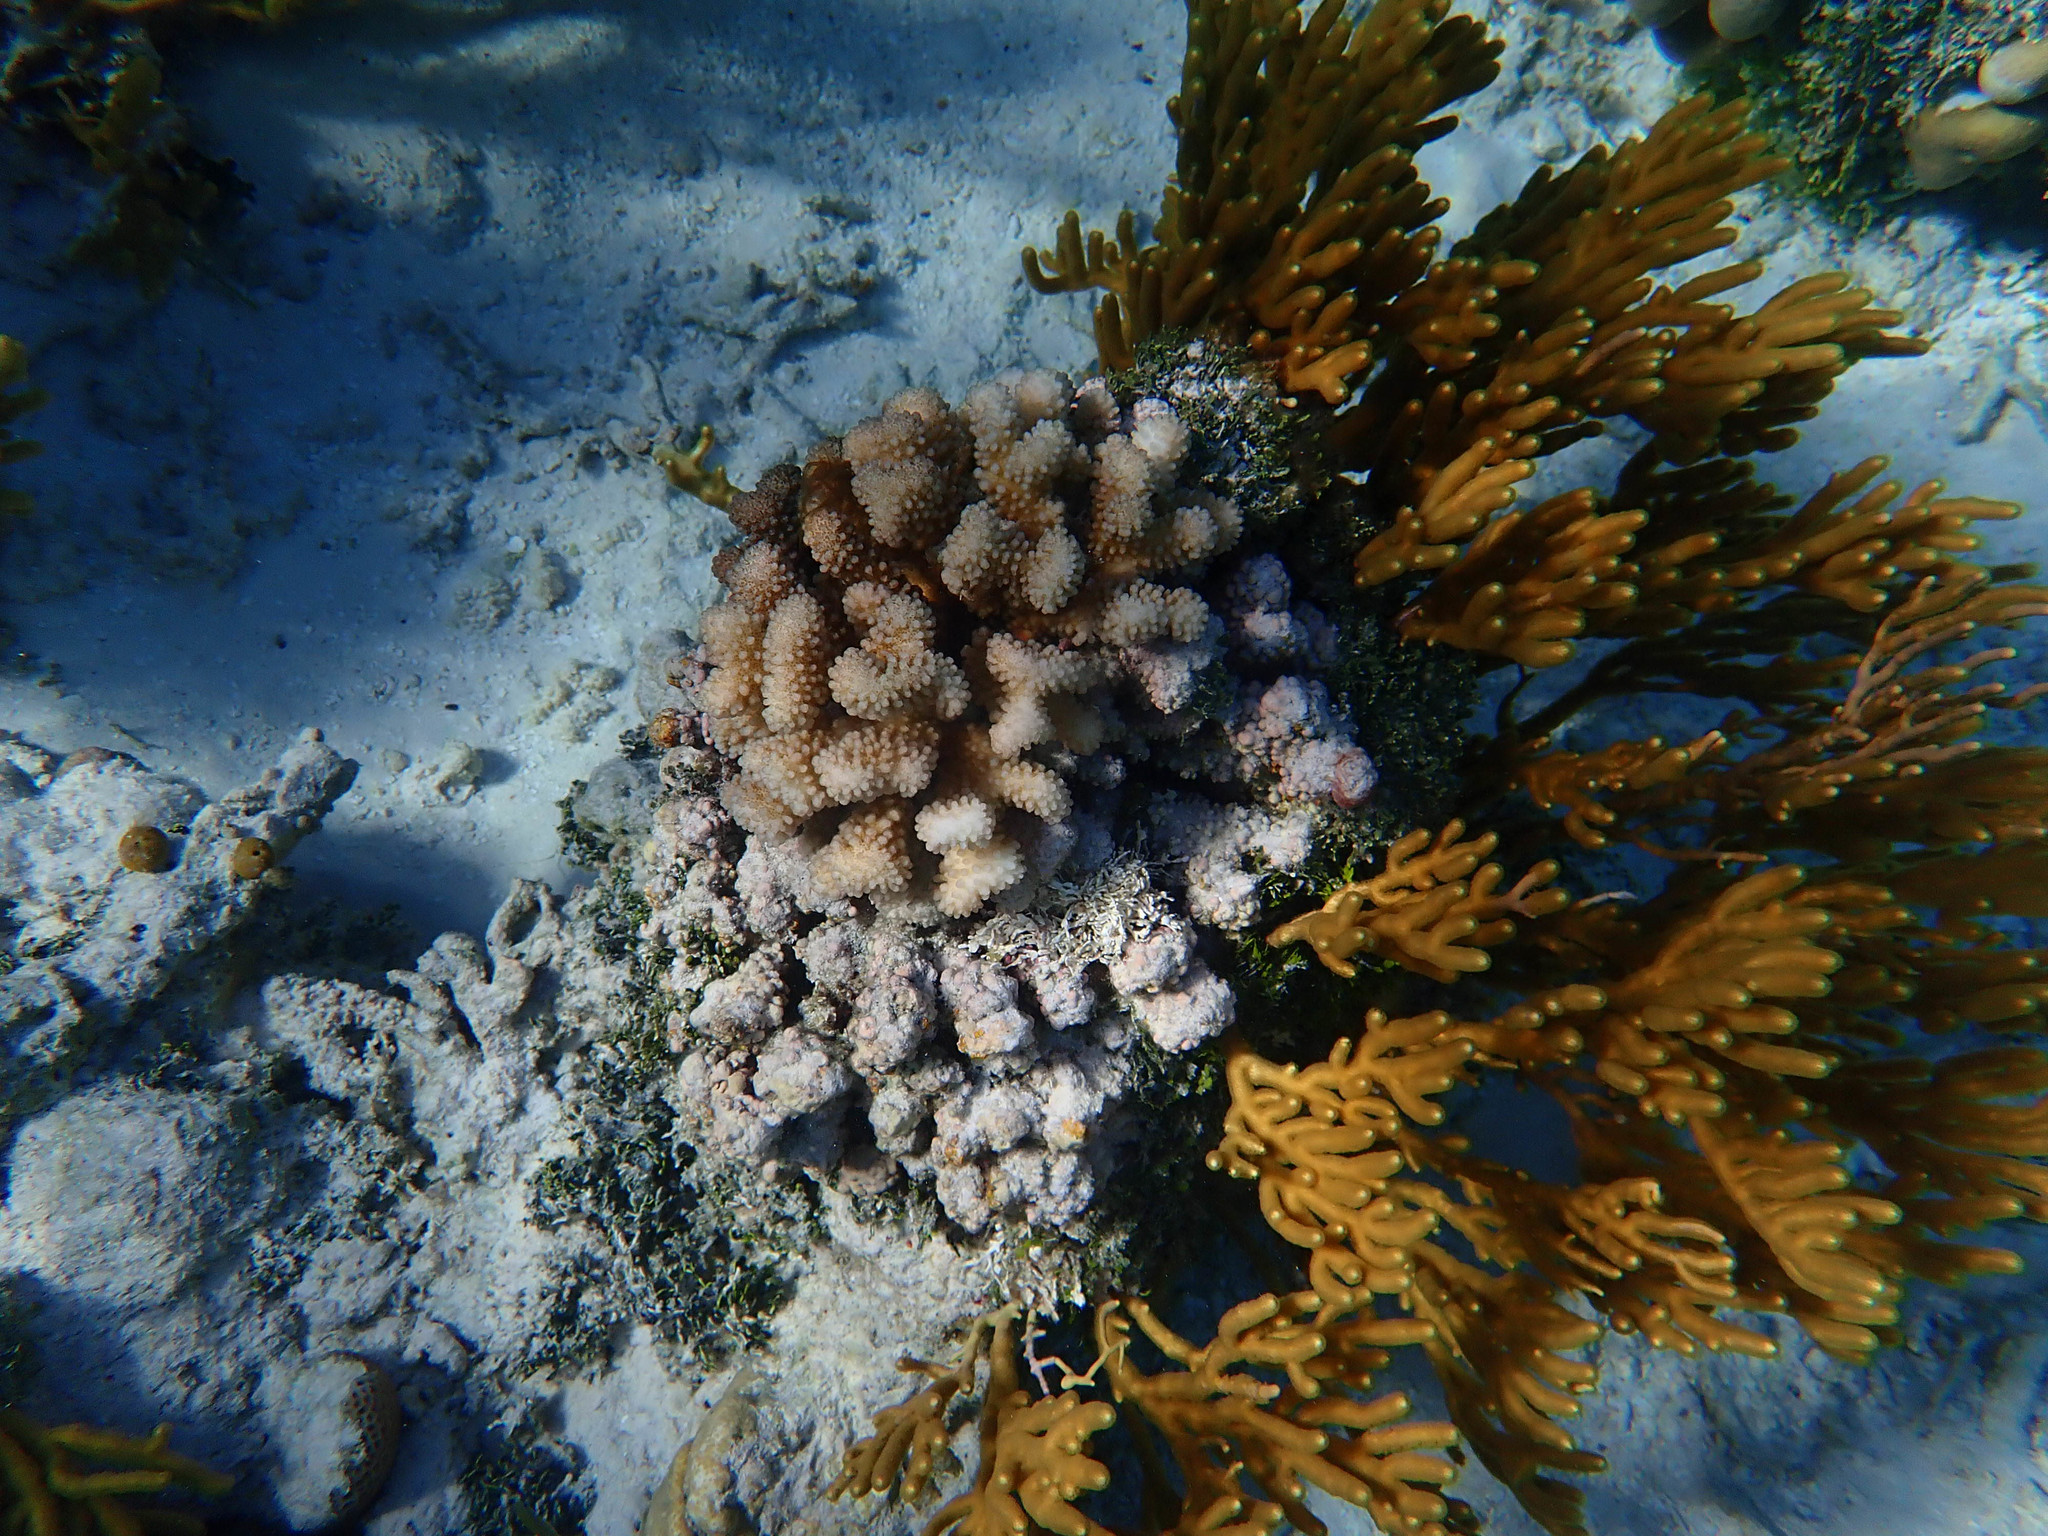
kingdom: Animalia
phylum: Cnidaria
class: Anthozoa
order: Malacalcyonacea
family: Isididae
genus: Isis
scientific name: Isis hippuris
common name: Golden sea fan
